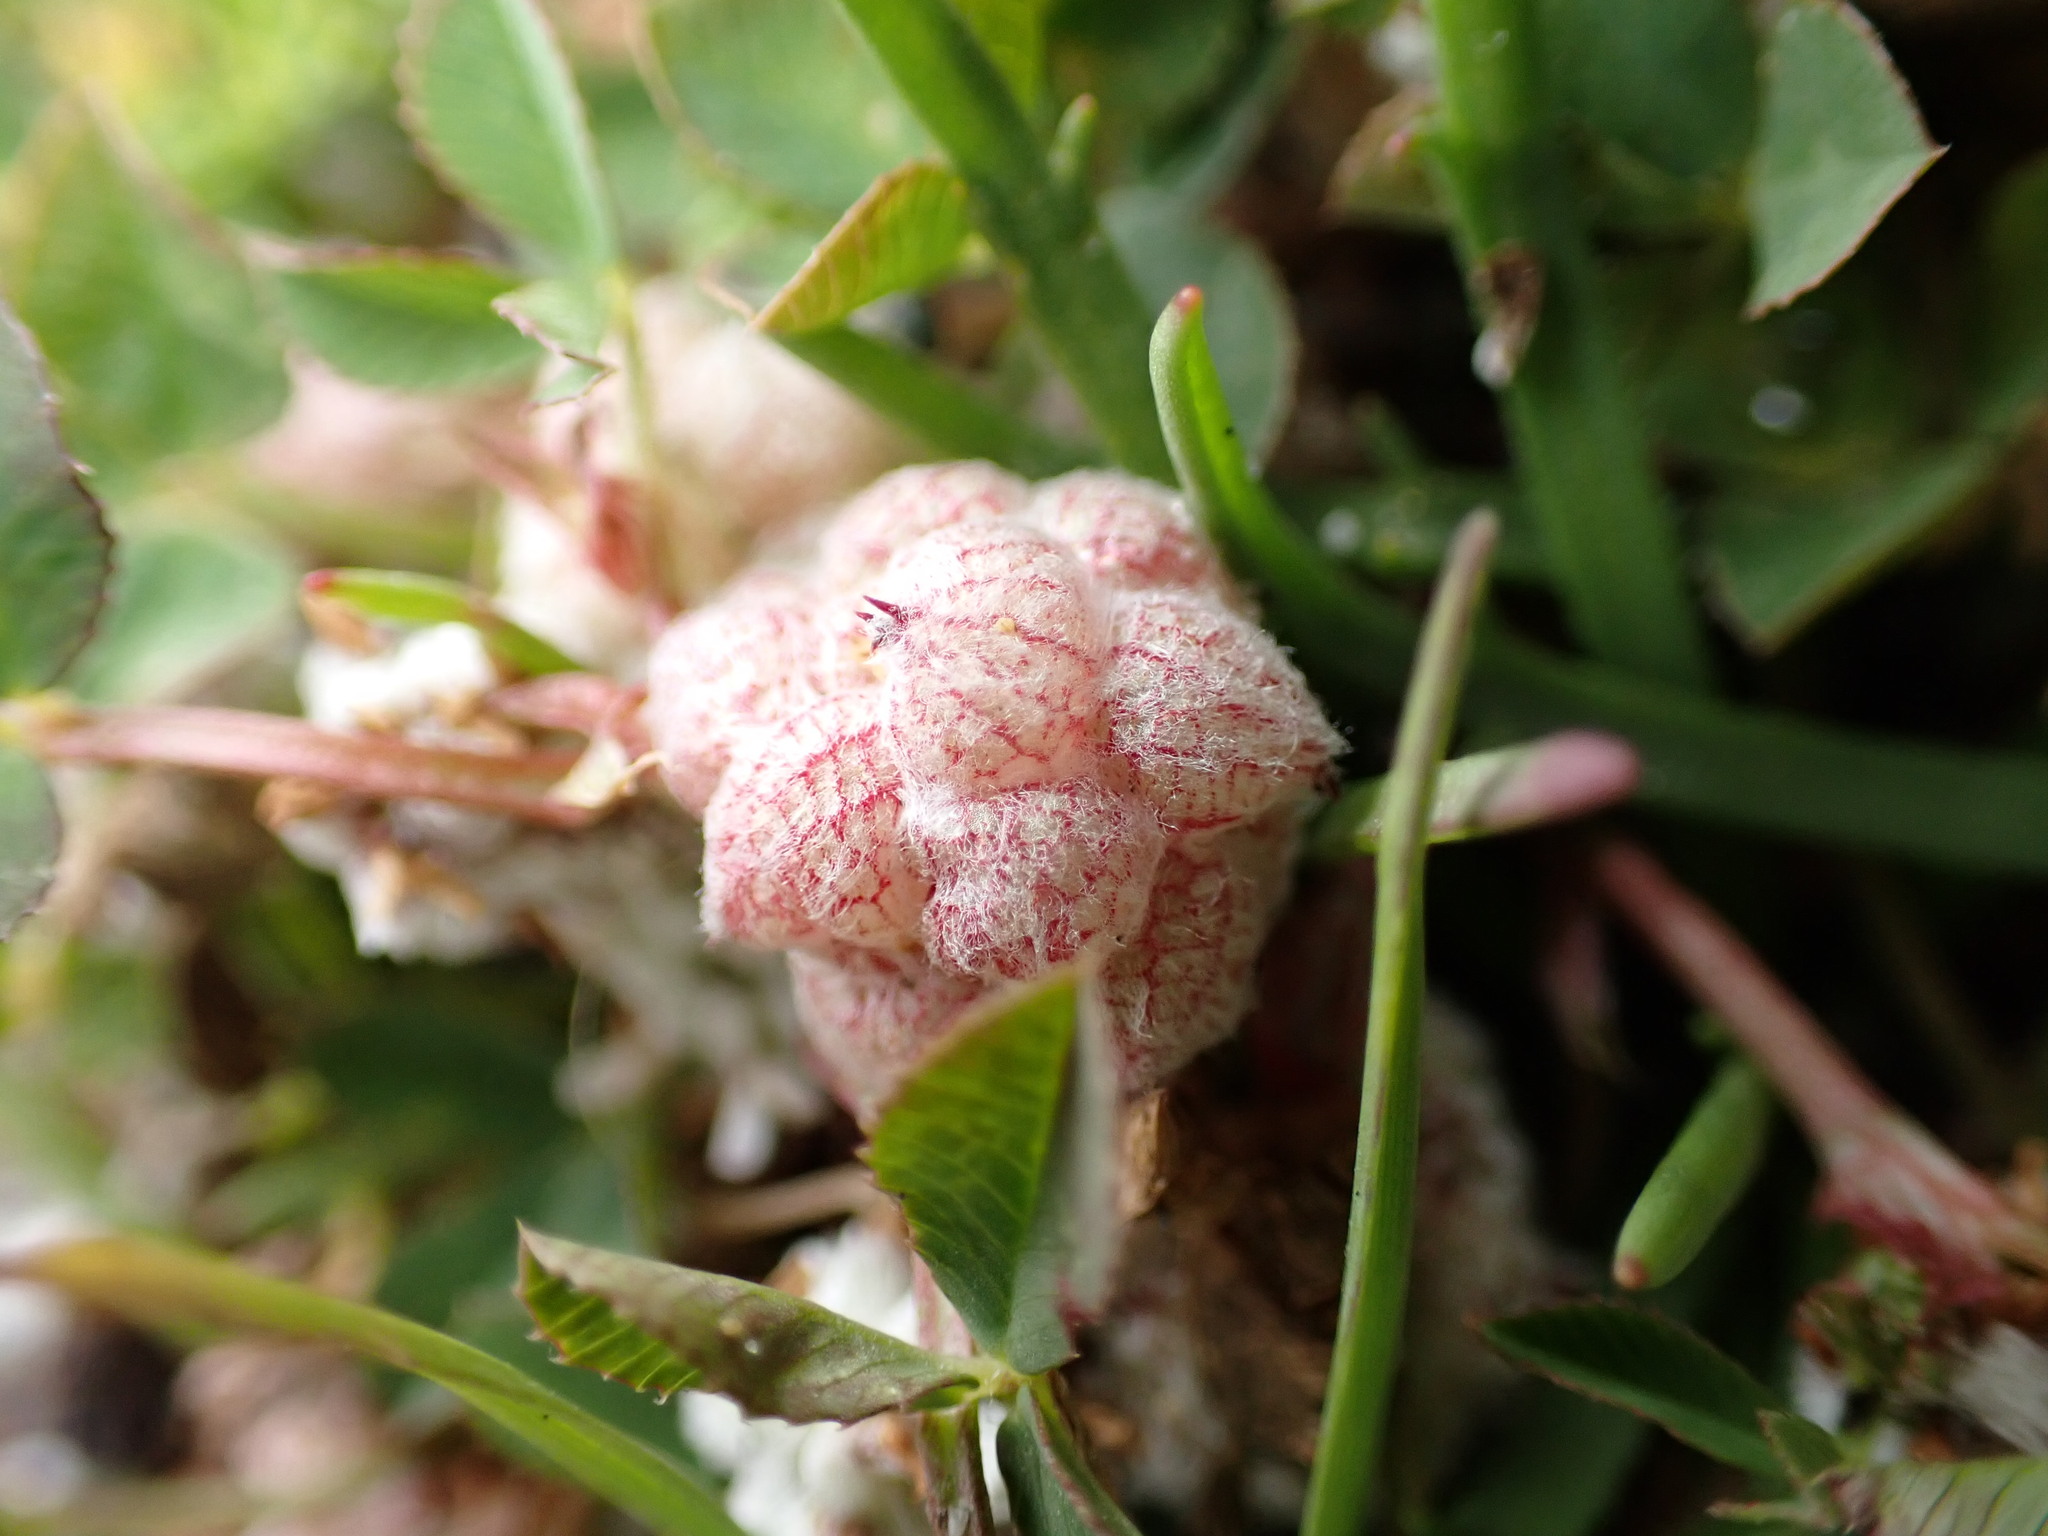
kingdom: Plantae
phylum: Tracheophyta
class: Magnoliopsida
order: Fabales
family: Fabaceae
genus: Trifolium
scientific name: Trifolium tomentosum
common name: Woolly clover
